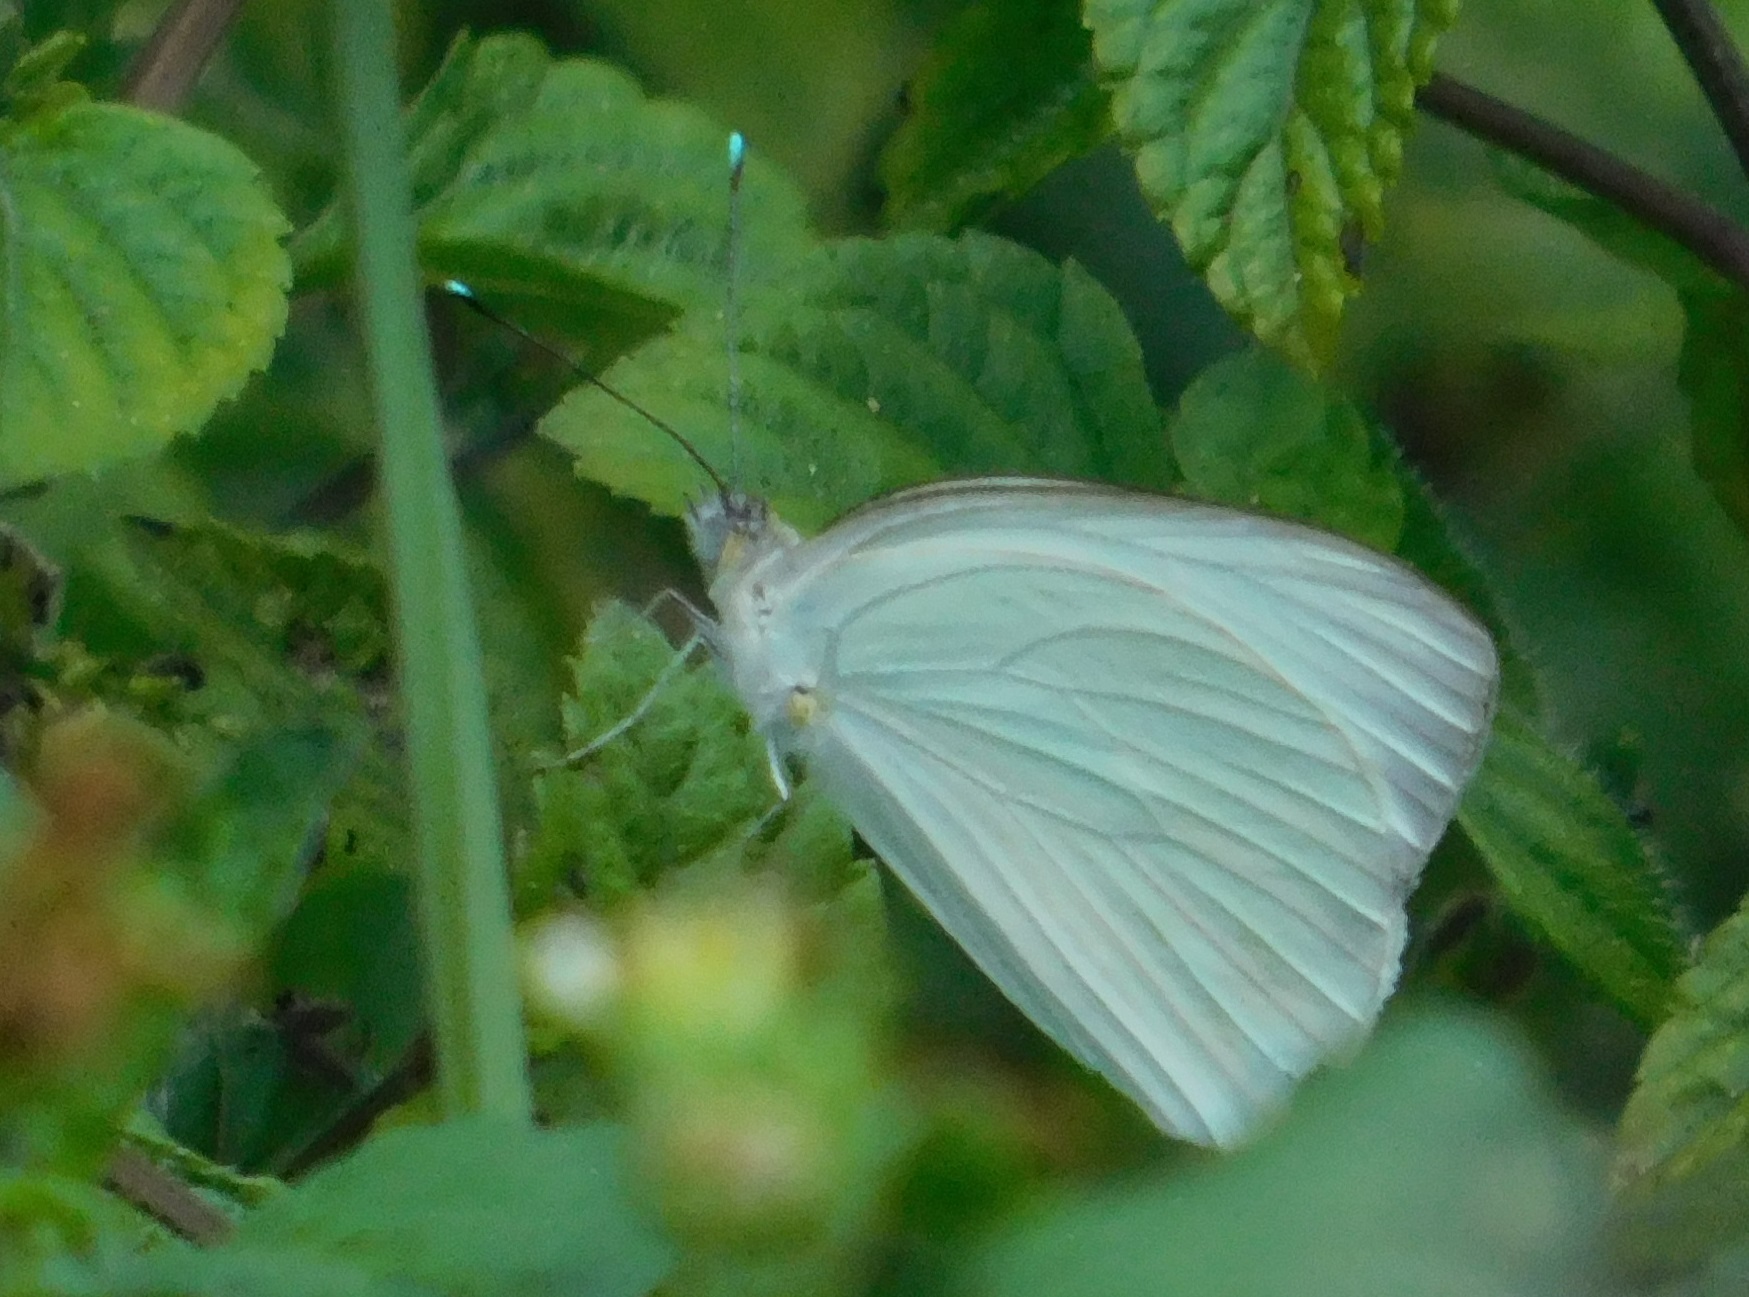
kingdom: Animalia
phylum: Arthropoda
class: Insecta
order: Lepidoptera
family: Pieridae
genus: Ascia
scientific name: Ascia monuste
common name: Great southern white
